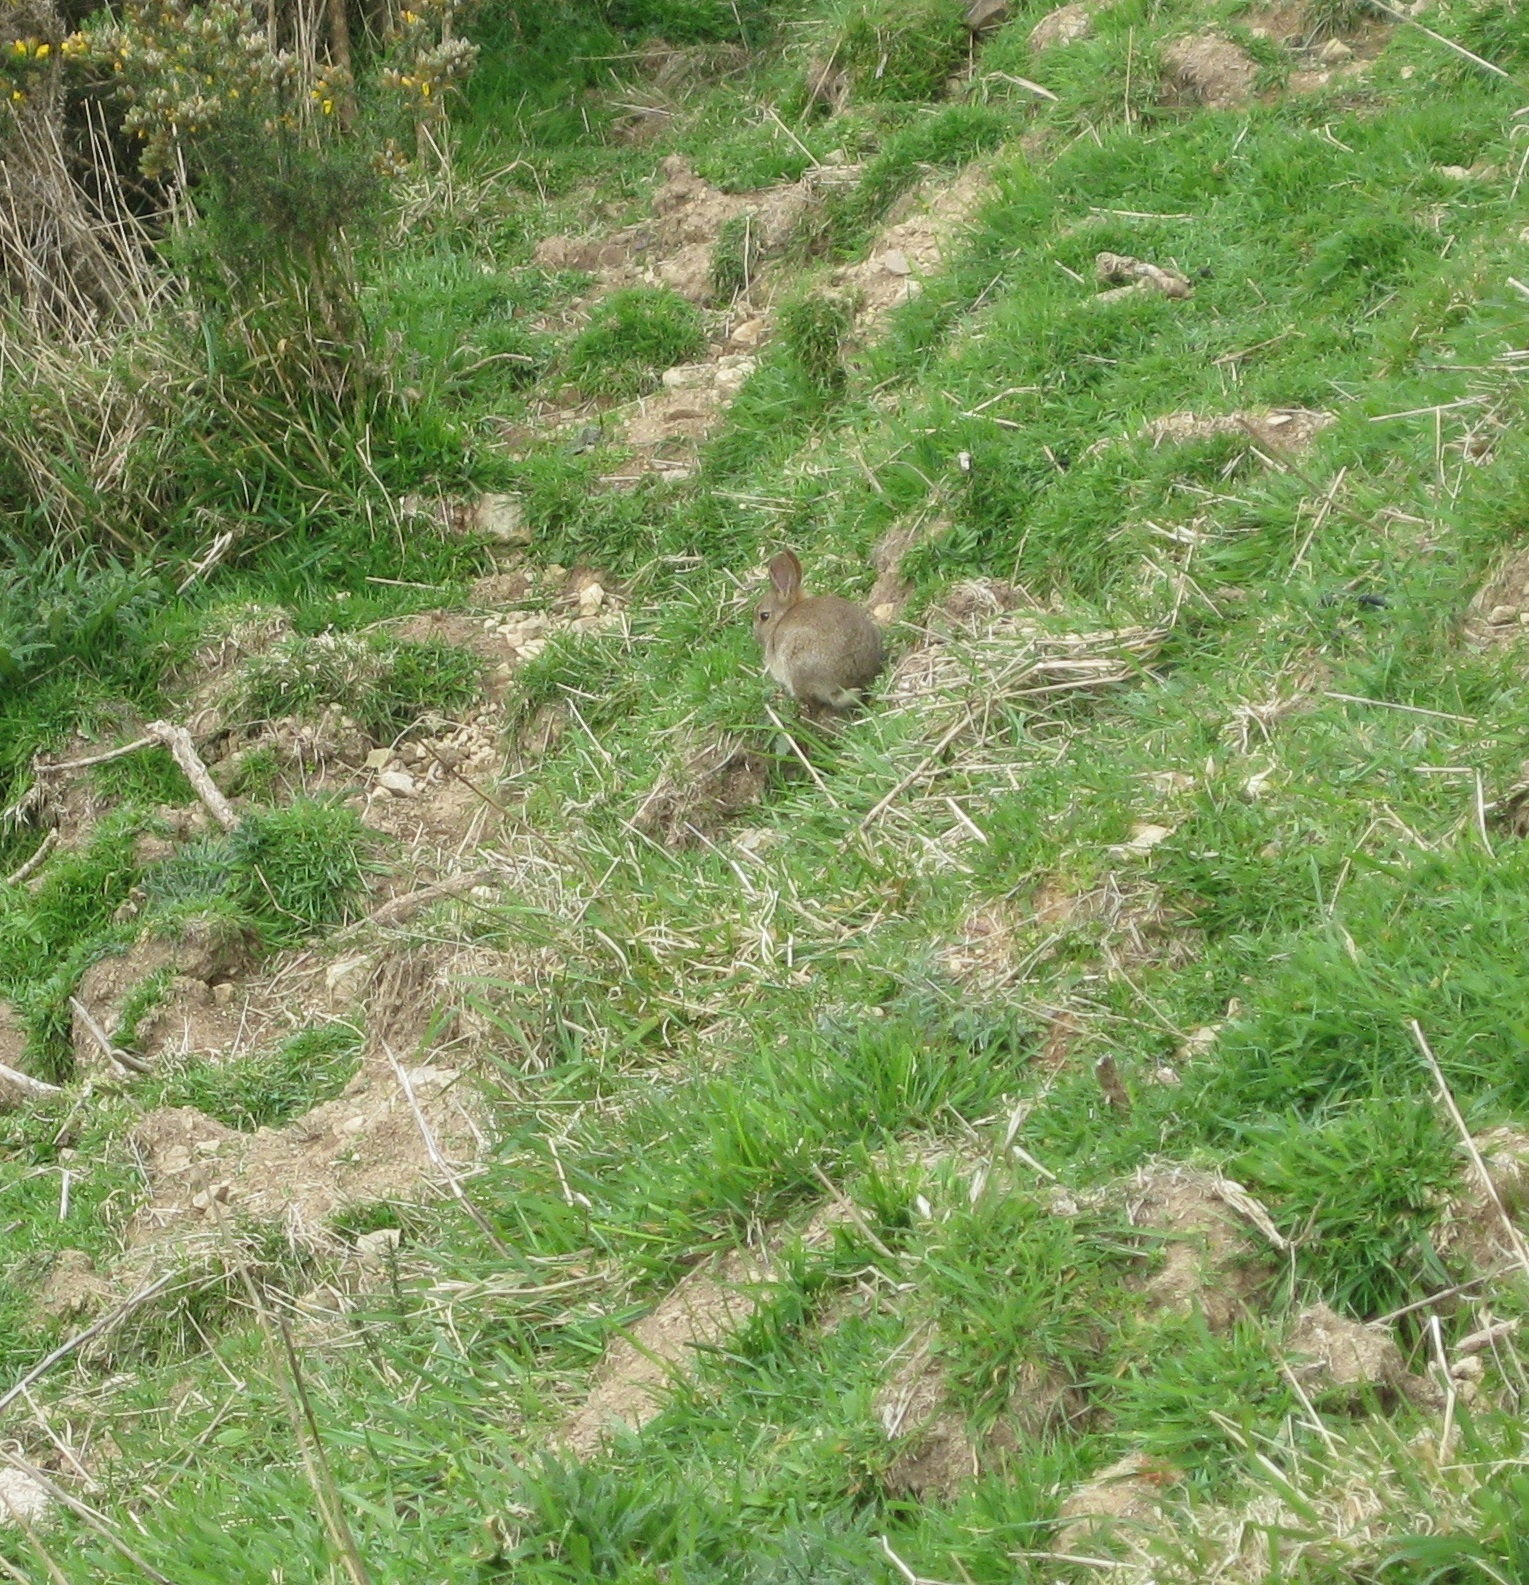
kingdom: Animalia
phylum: Chordata
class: Mammalia
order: Lagomorpha
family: Leporidae
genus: Oryctolagus
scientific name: Oryctolagus cuniculus
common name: European rabbit
